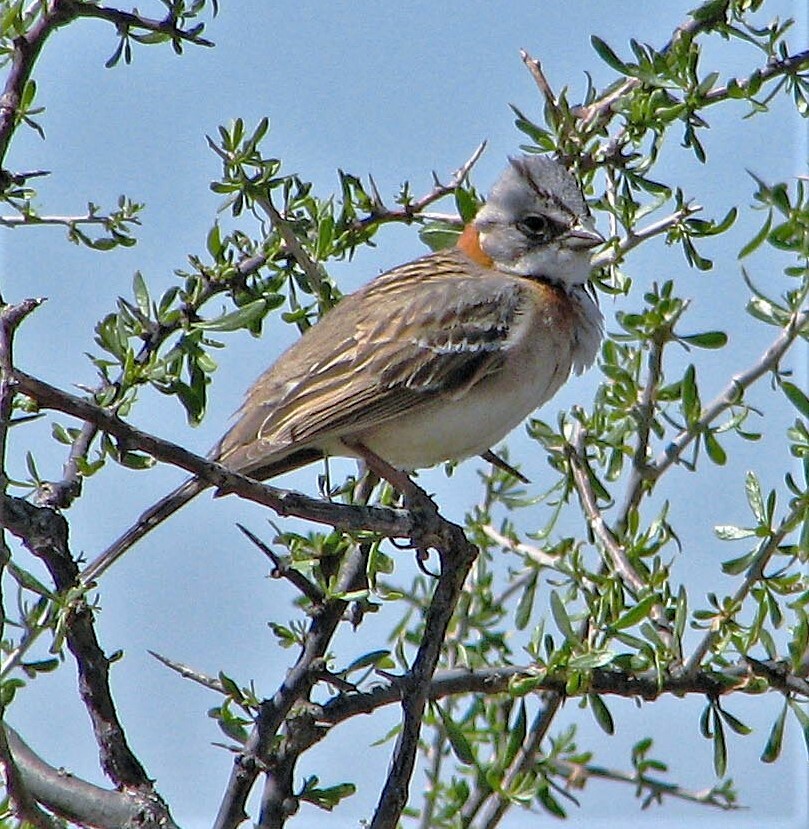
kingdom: Animalia
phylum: Chordata
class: Aves
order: Passeriformes
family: Passerellidae
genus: Zonotrichia
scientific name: Zonotrichia capensis
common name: Rufous-collared sparrow
